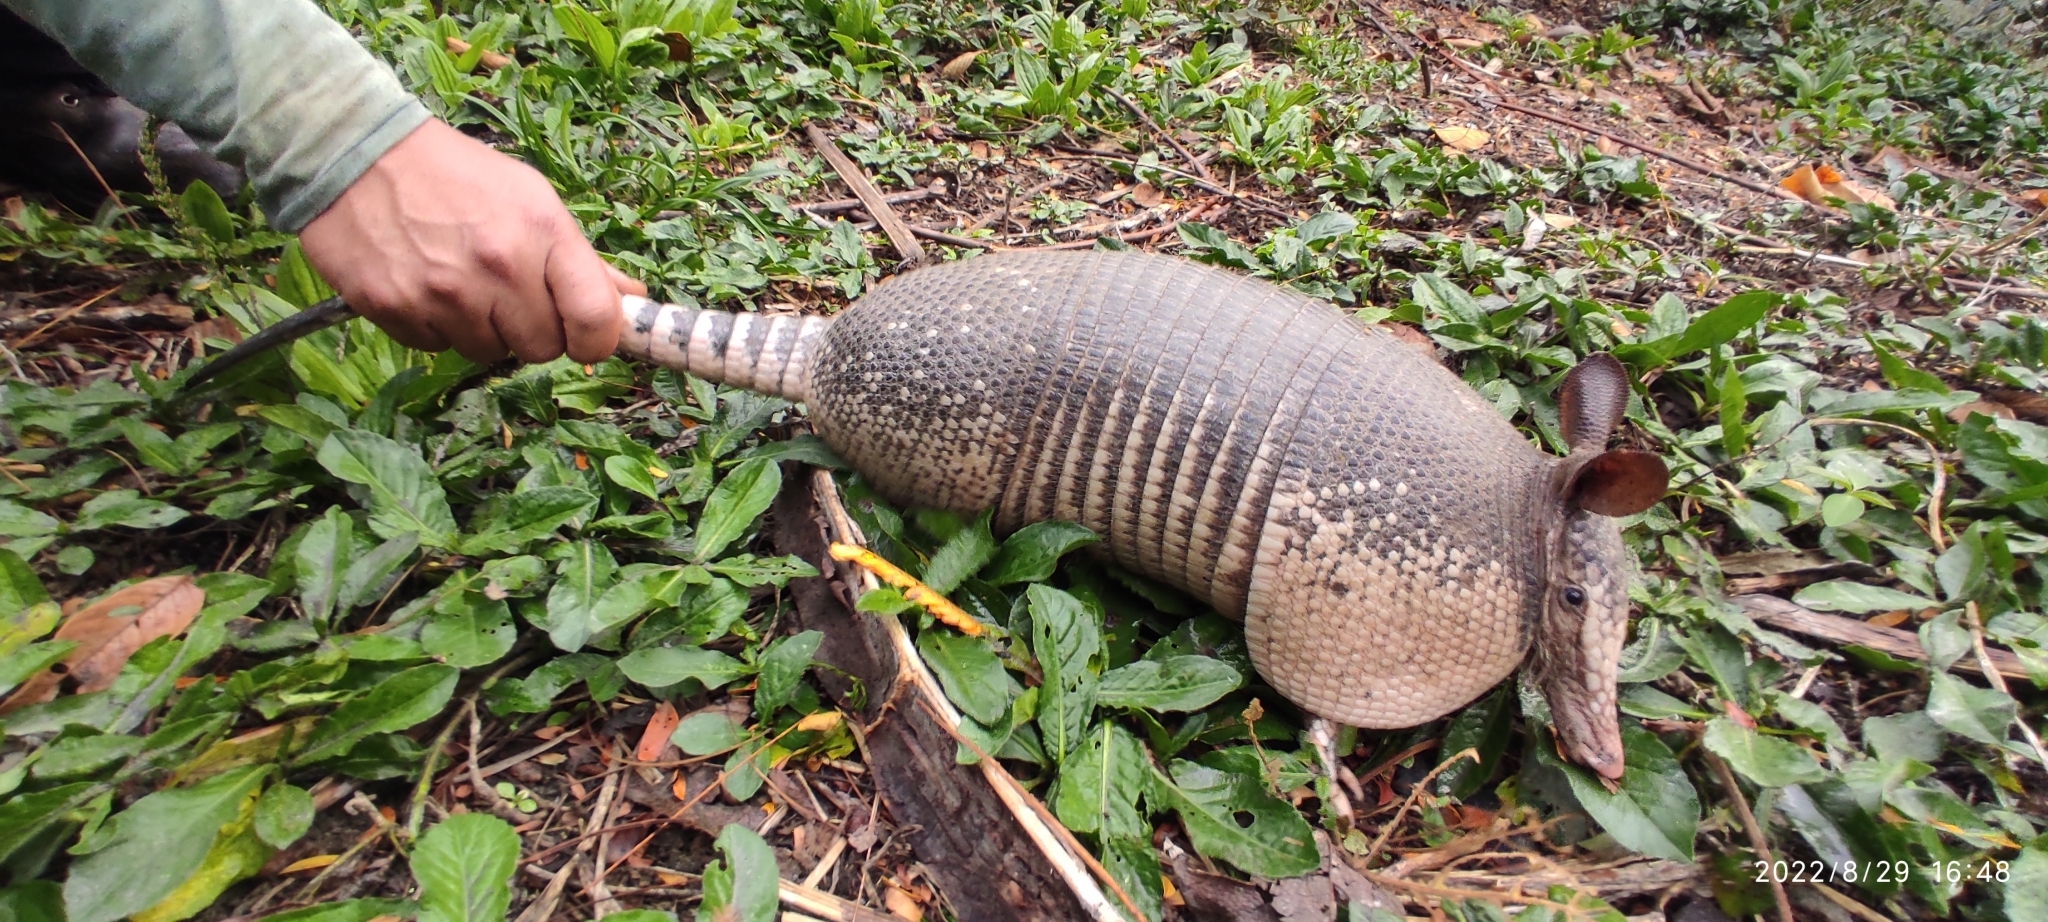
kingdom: Animalia
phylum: Chordata
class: Mammalia
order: Cingulata
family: Dasypodidae
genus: Dasypus
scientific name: Dasypus novemcinctus
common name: Nine-banded armadillo
